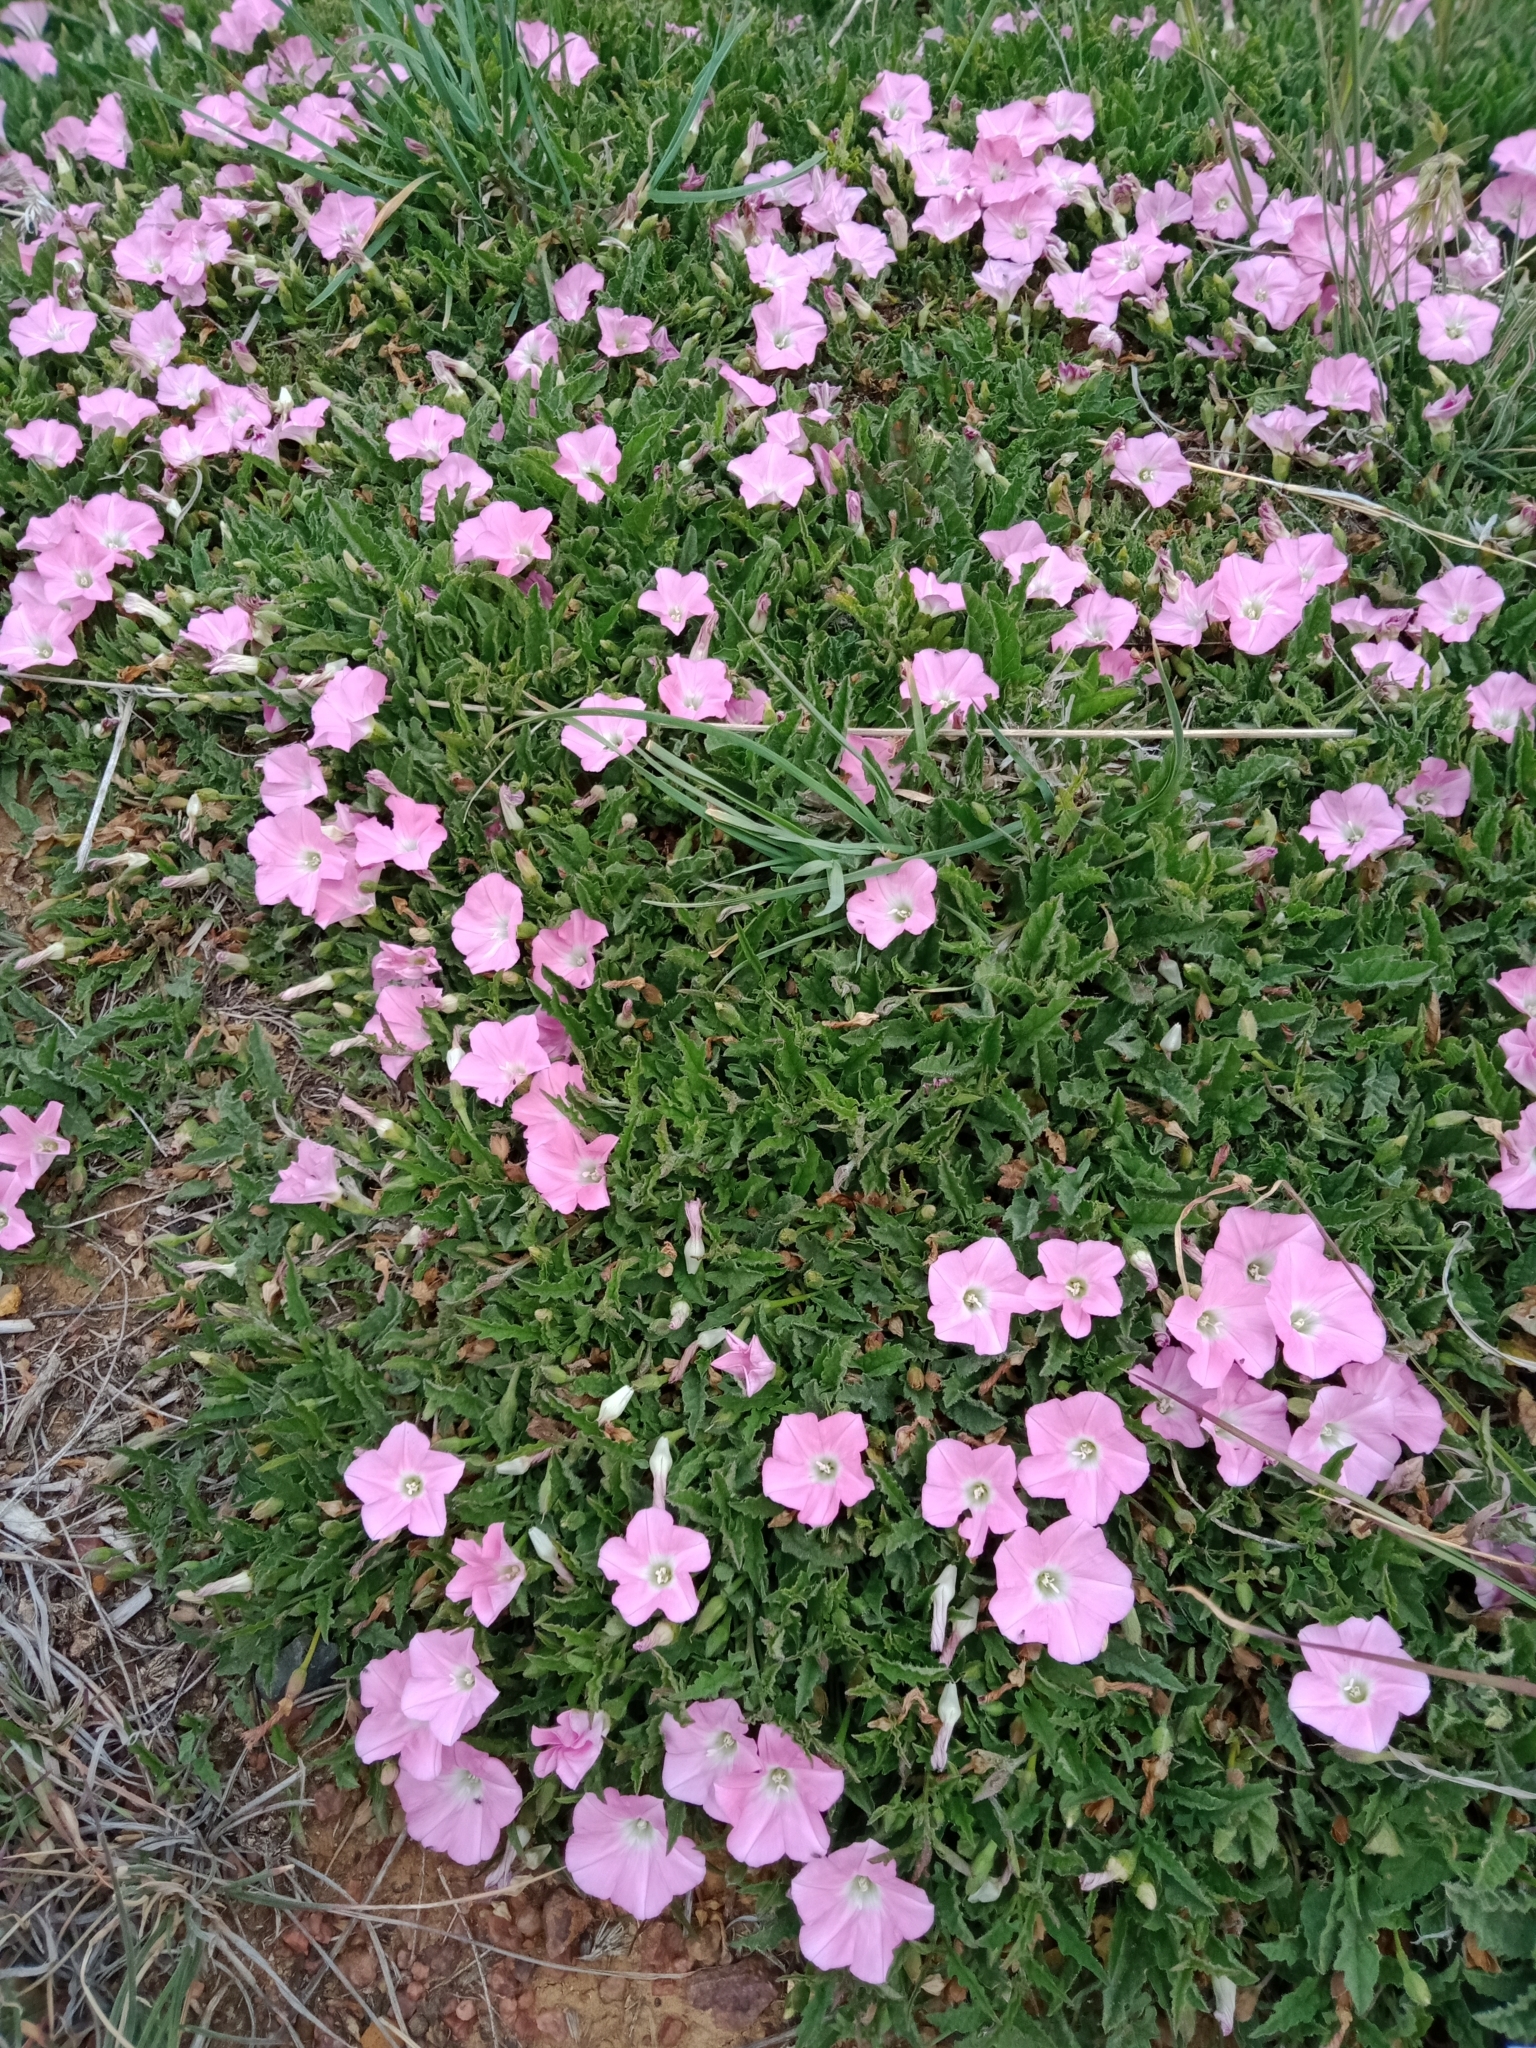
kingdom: Plantae
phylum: Tracheophyta
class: Magnoliopsida
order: Solanales
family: Convolvulaceae
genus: Convolvulus
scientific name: Convolvulus angustissimus
